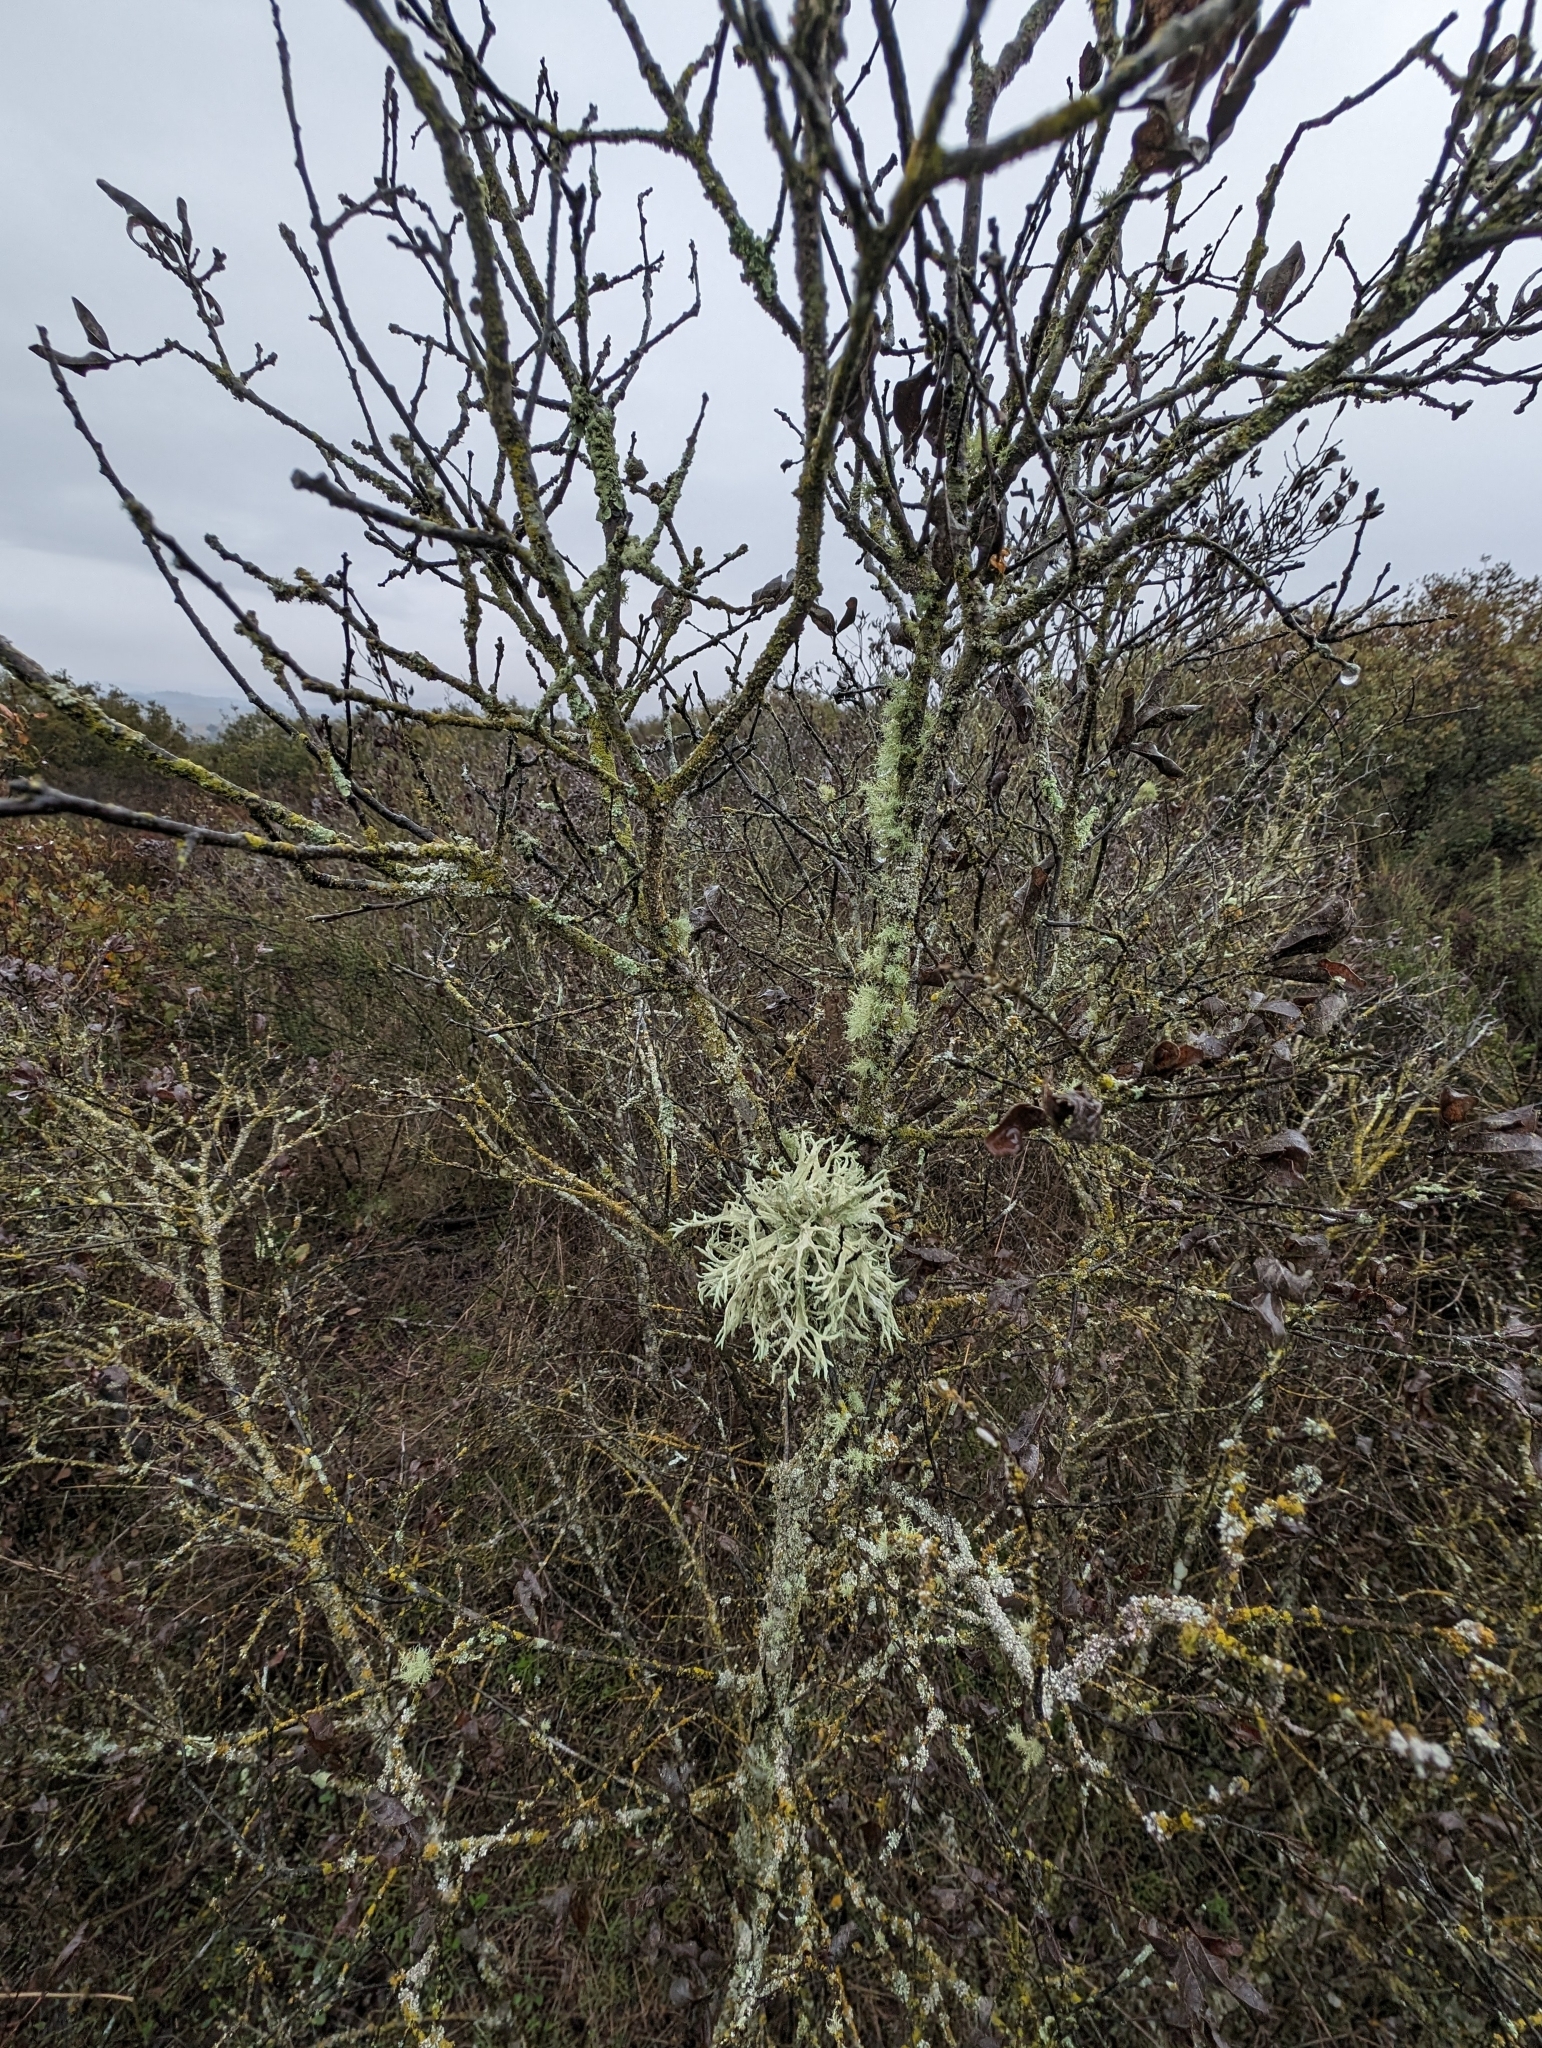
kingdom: Fungi
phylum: Ascomycota
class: Lecanoromycetes
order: Lecanorales
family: Parmeliaceae
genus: Evernia
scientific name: Evernia prunastri
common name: Oak moss
